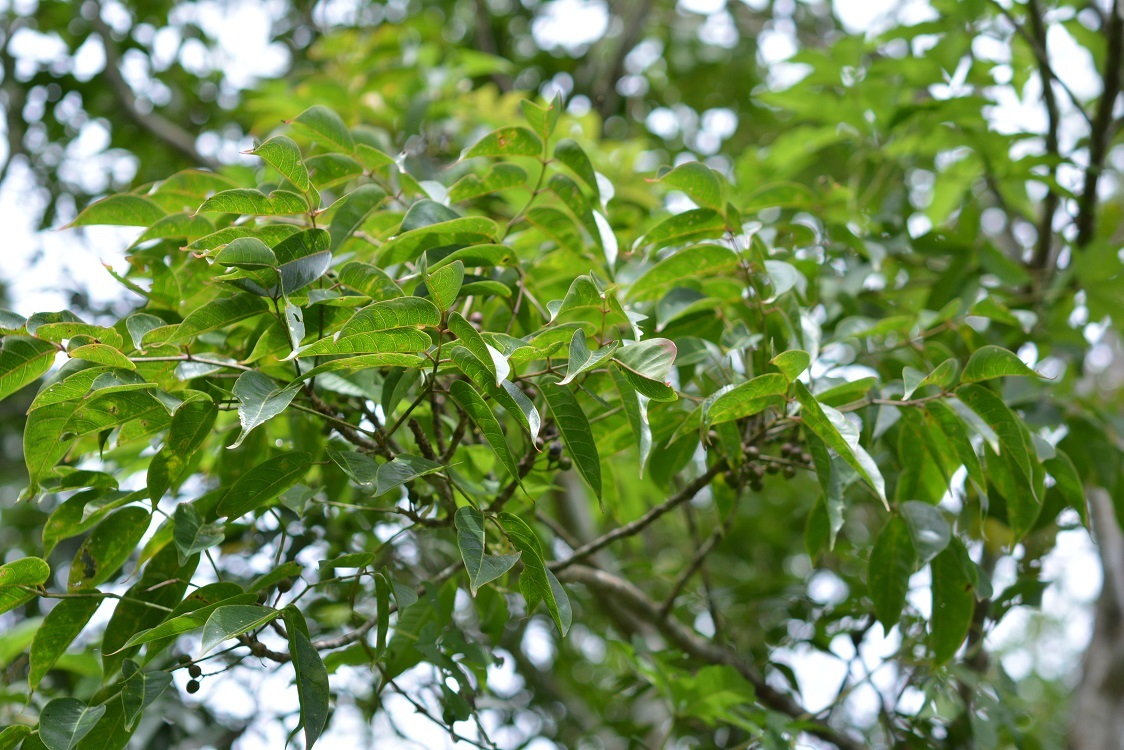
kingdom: Plantae
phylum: Tracheophyta
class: Magnoliopsida
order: Sapindales
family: Burseraceae
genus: Bursera
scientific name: Bursera simaruba
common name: Turpentine tree
